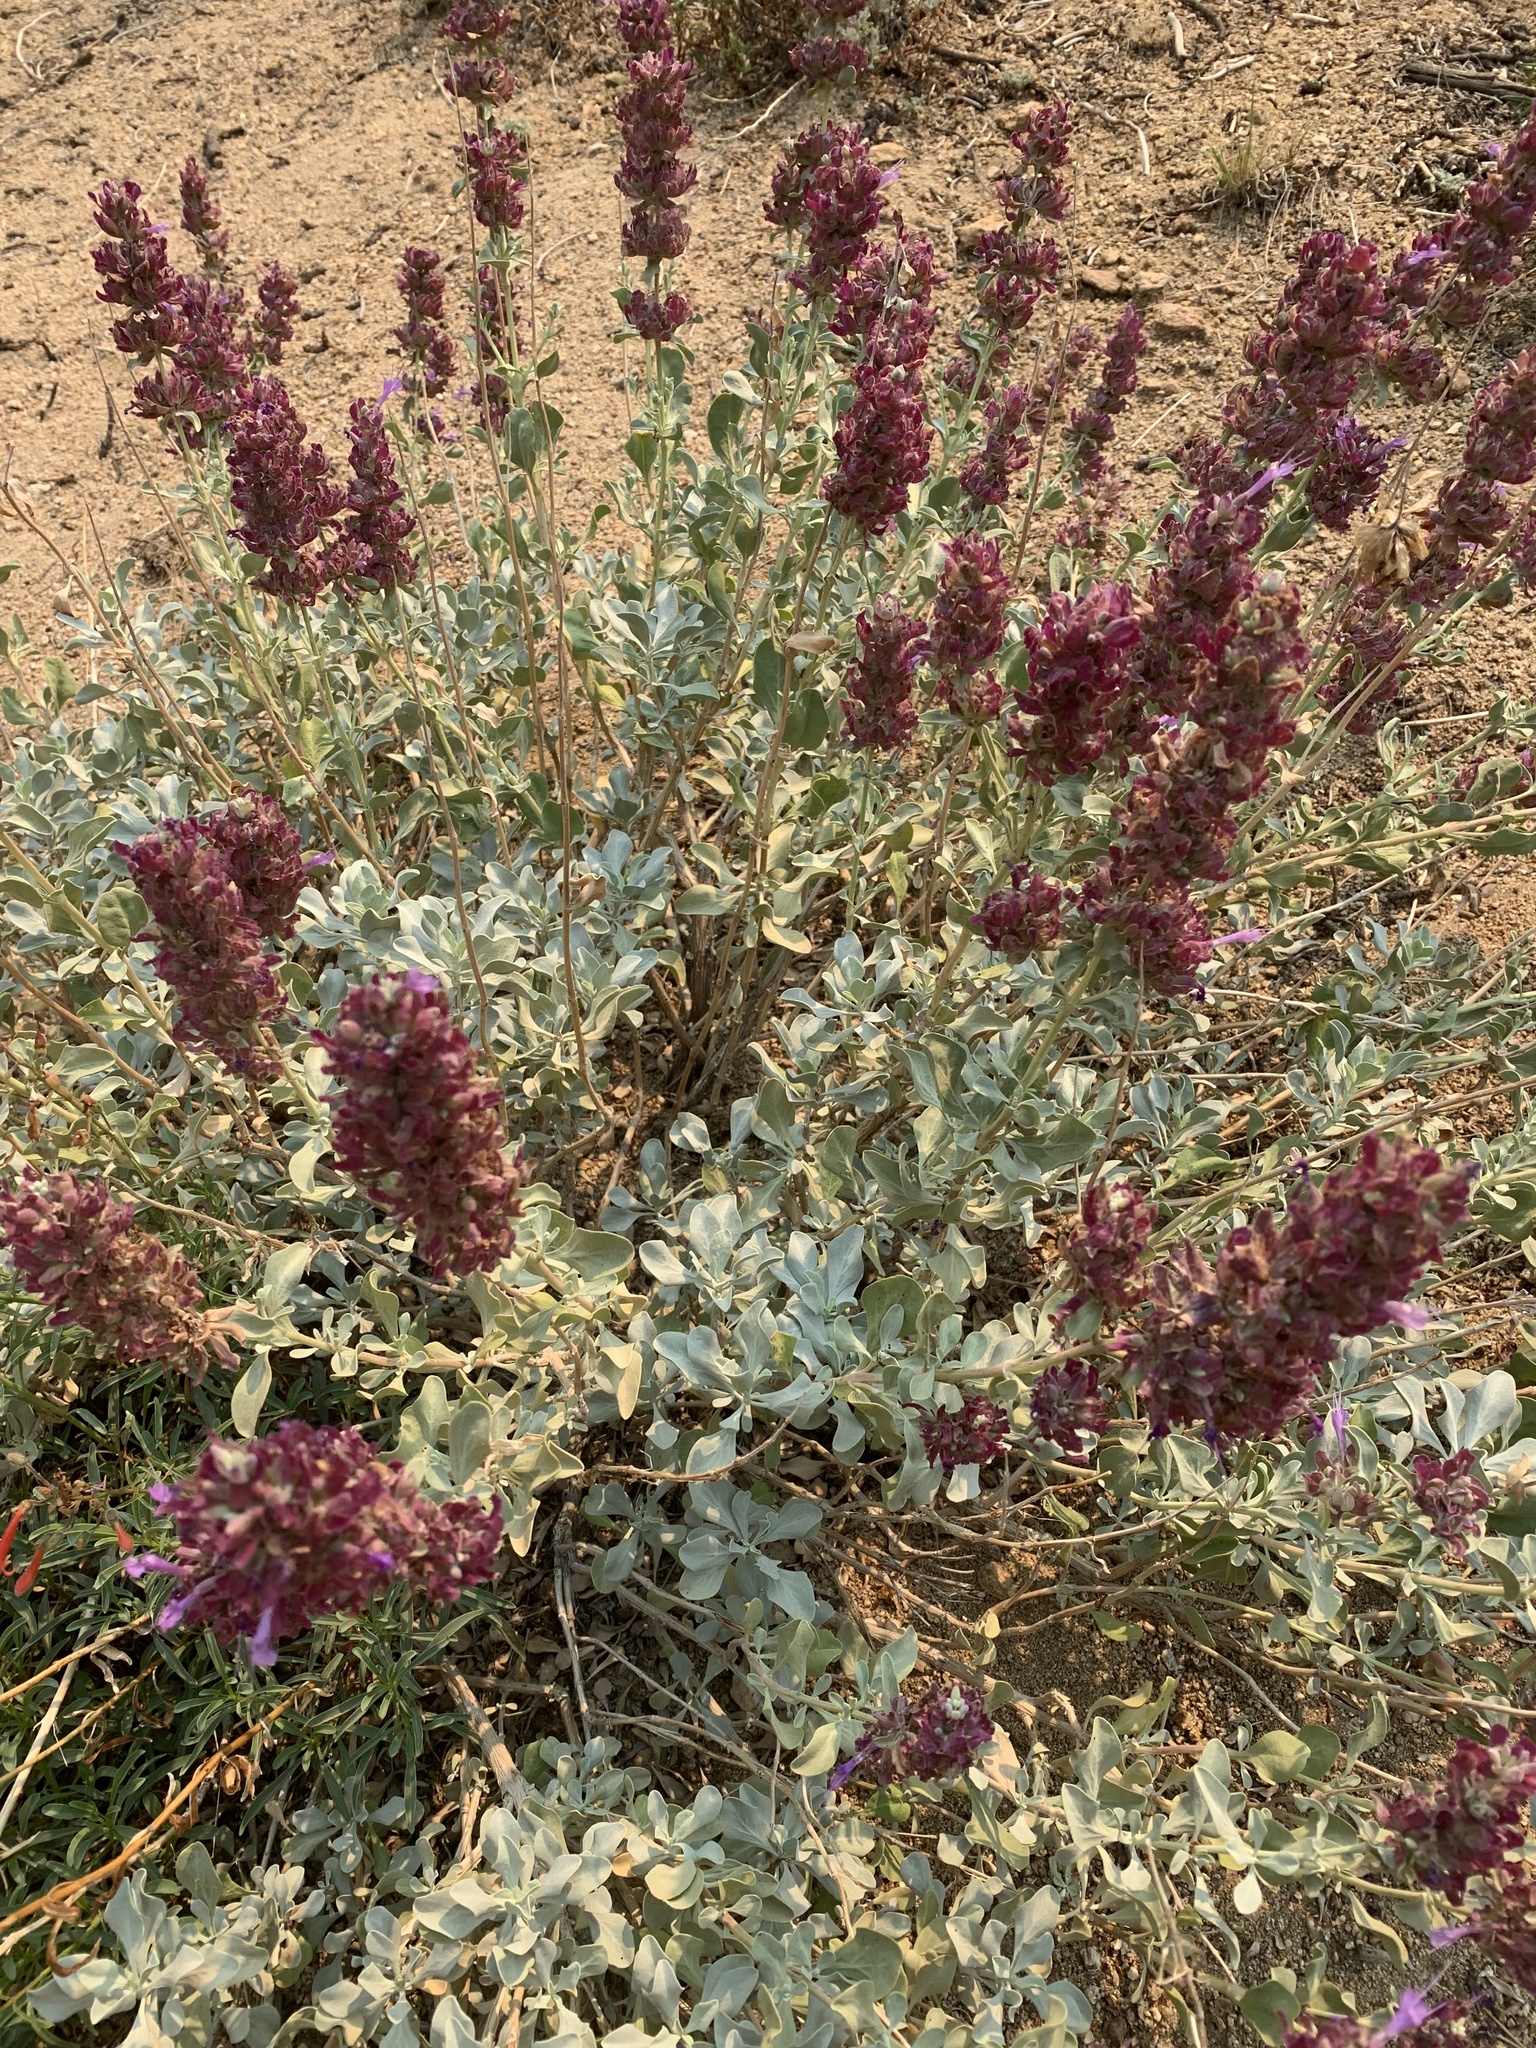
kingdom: Plantae
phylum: Tracheophyta
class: Magnoliopsida
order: Lamiales
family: Lamiaceae
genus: Salvia
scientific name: Salvia pachyphylla
